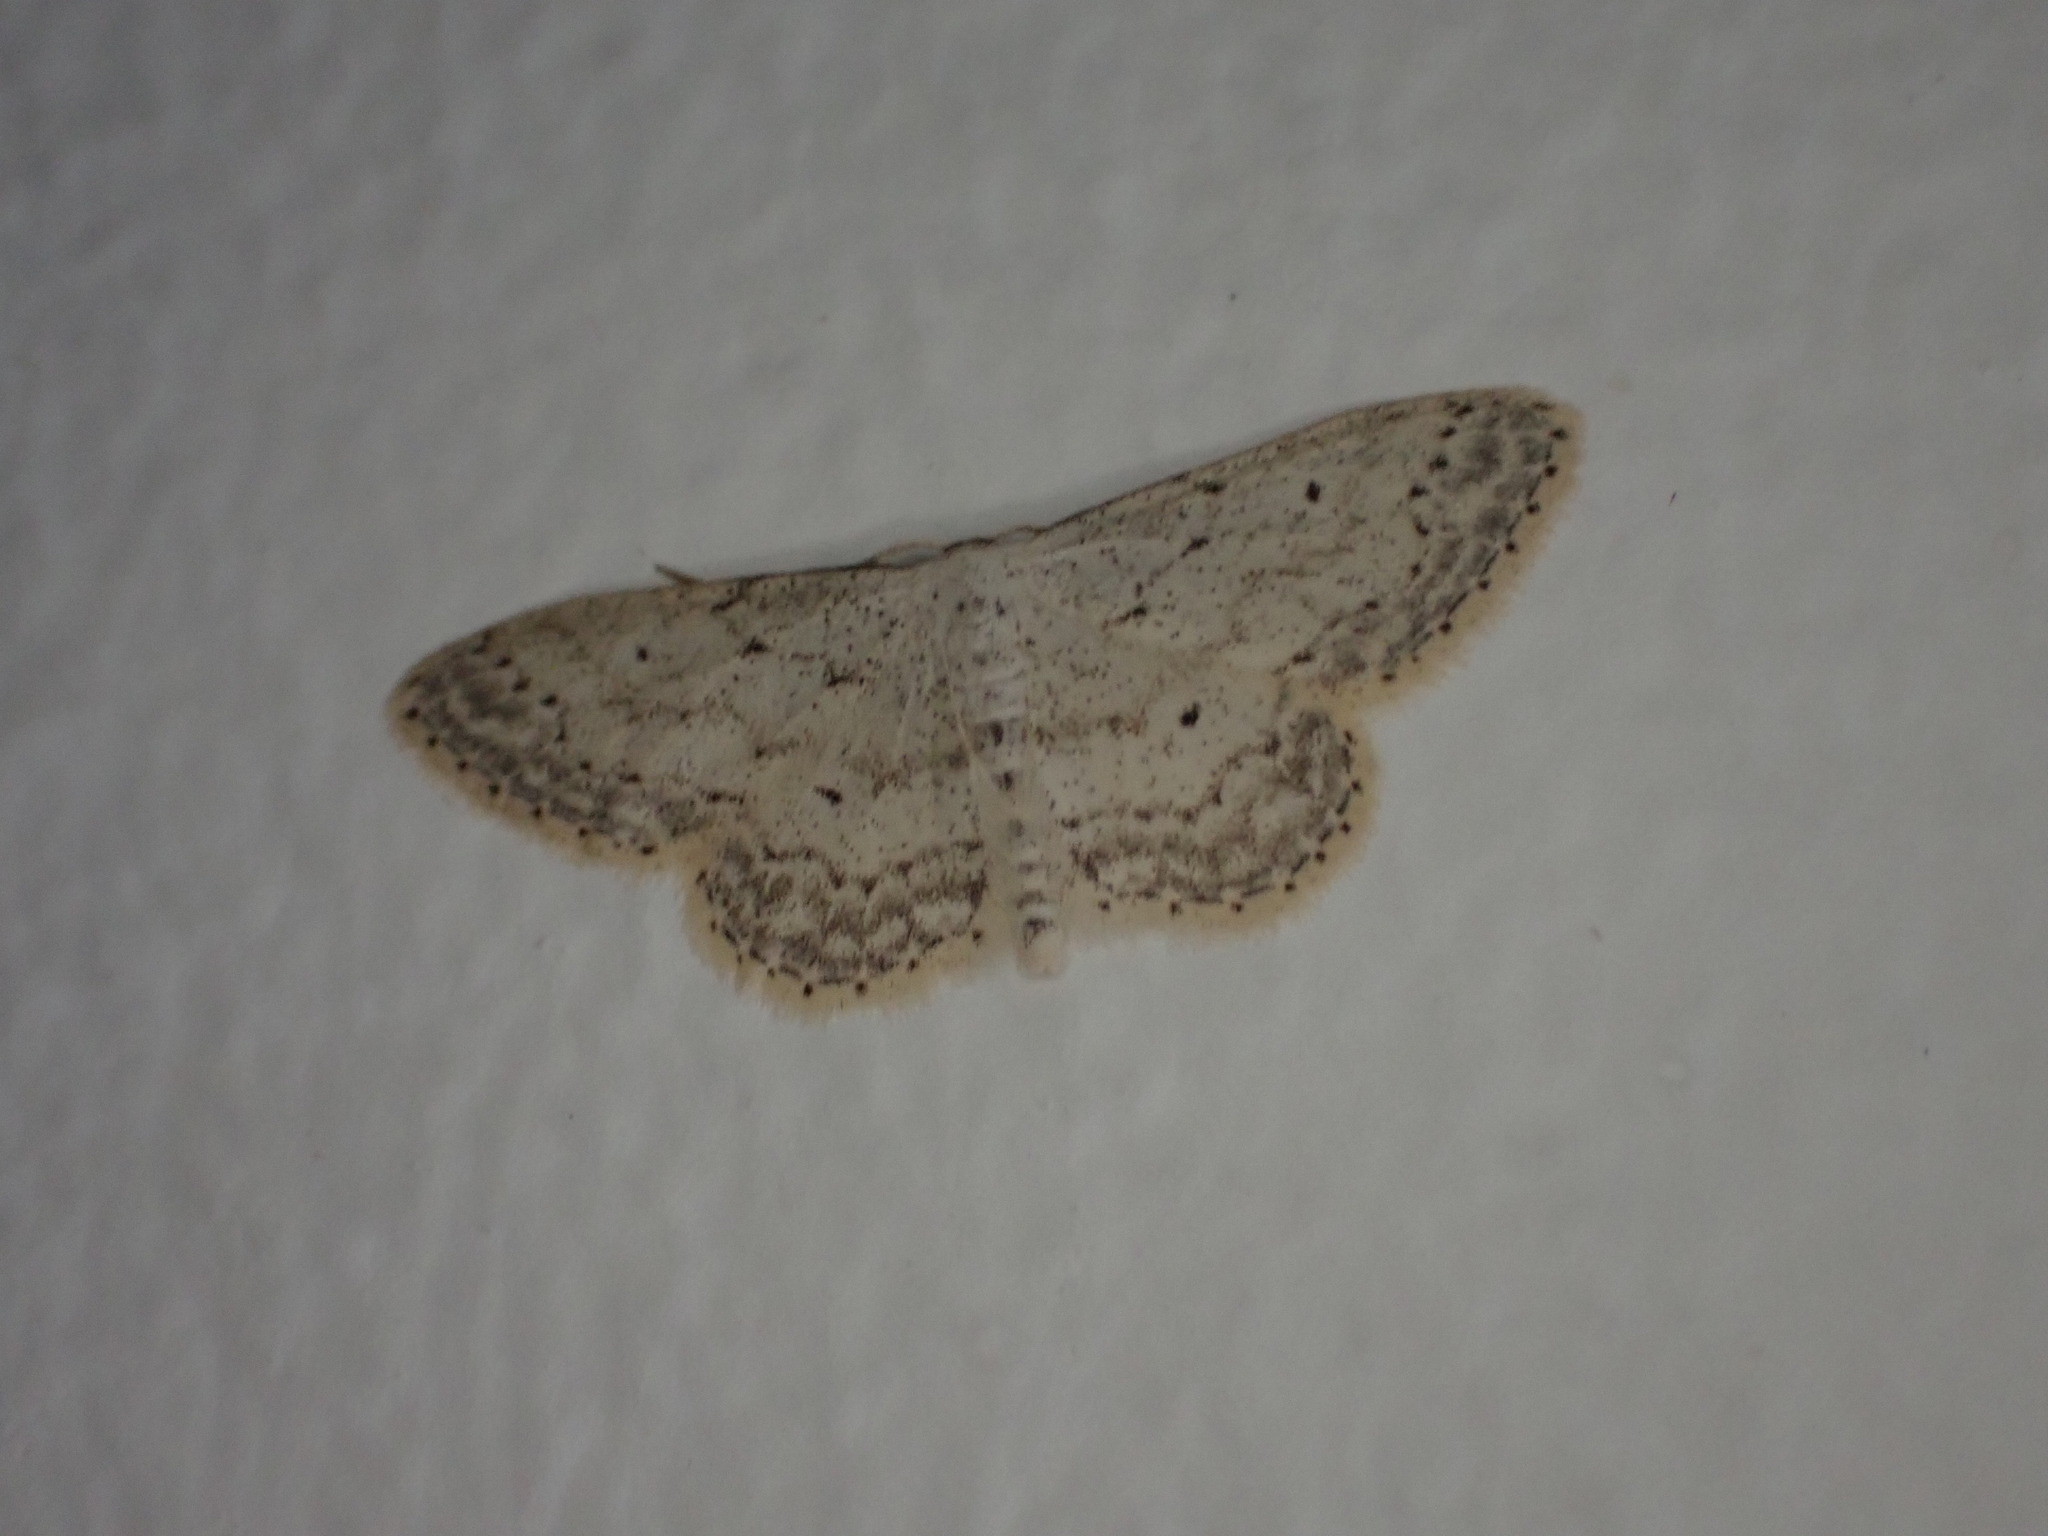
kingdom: Animalia
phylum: Arthropoda
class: Insecta
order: Lepidoptera
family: Geometridae
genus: Idaea
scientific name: Idaea seriata
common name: Small dusty wave
